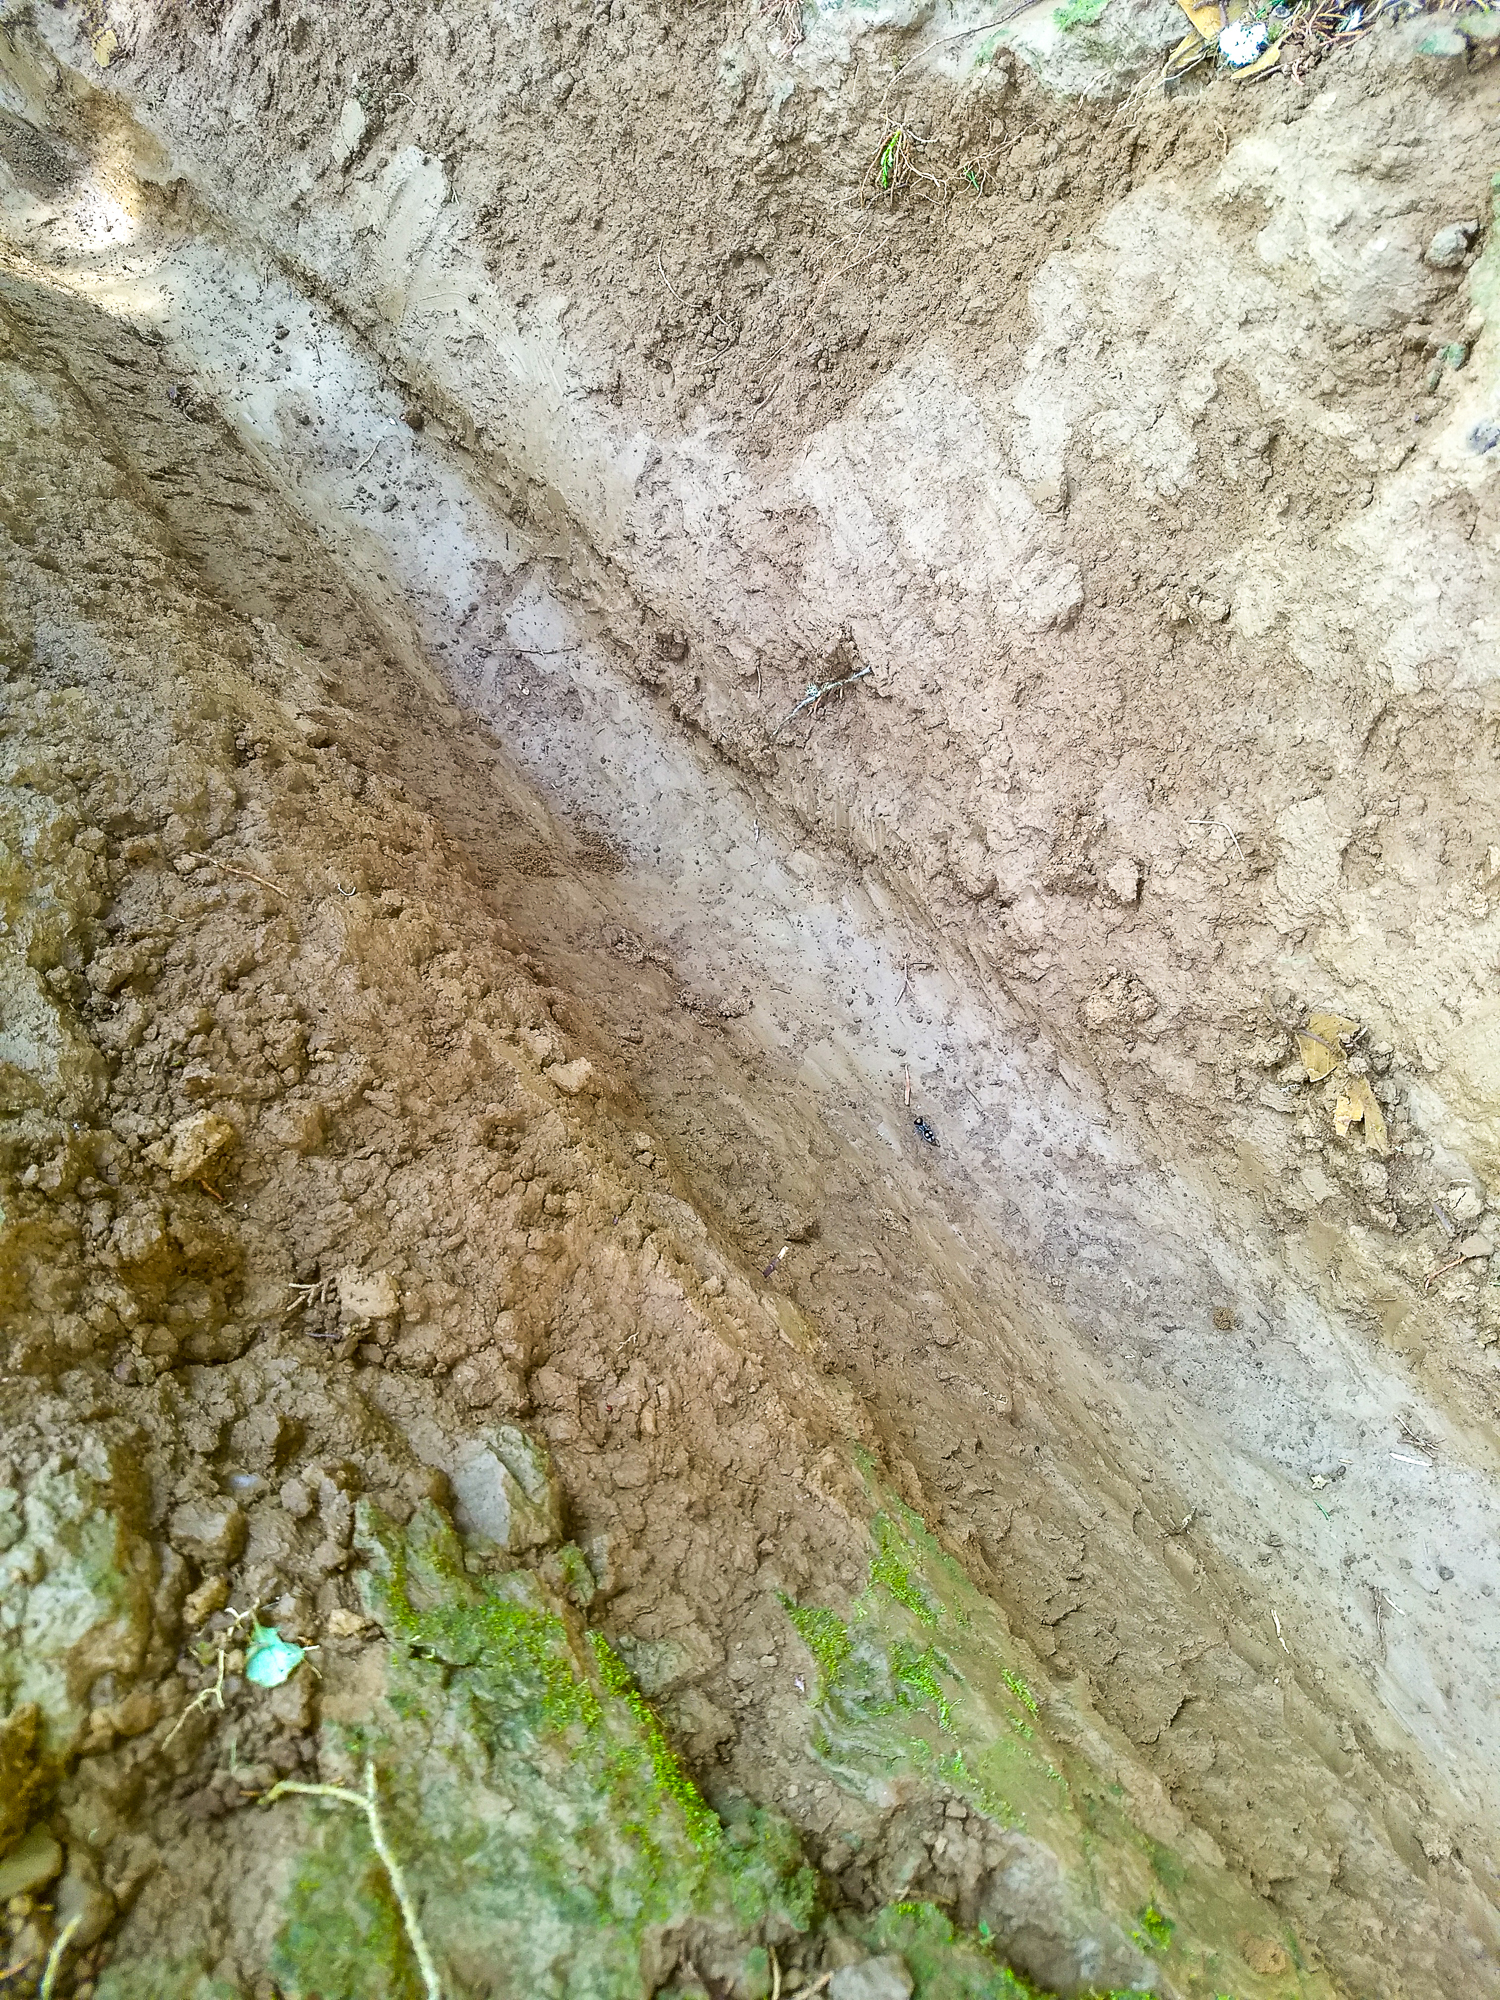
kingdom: Animalia
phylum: Arthropoda
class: Insecta
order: Hymenoptera
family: Mutillidae
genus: Hoplognathoca
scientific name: Hoplognathoca costarricensis
